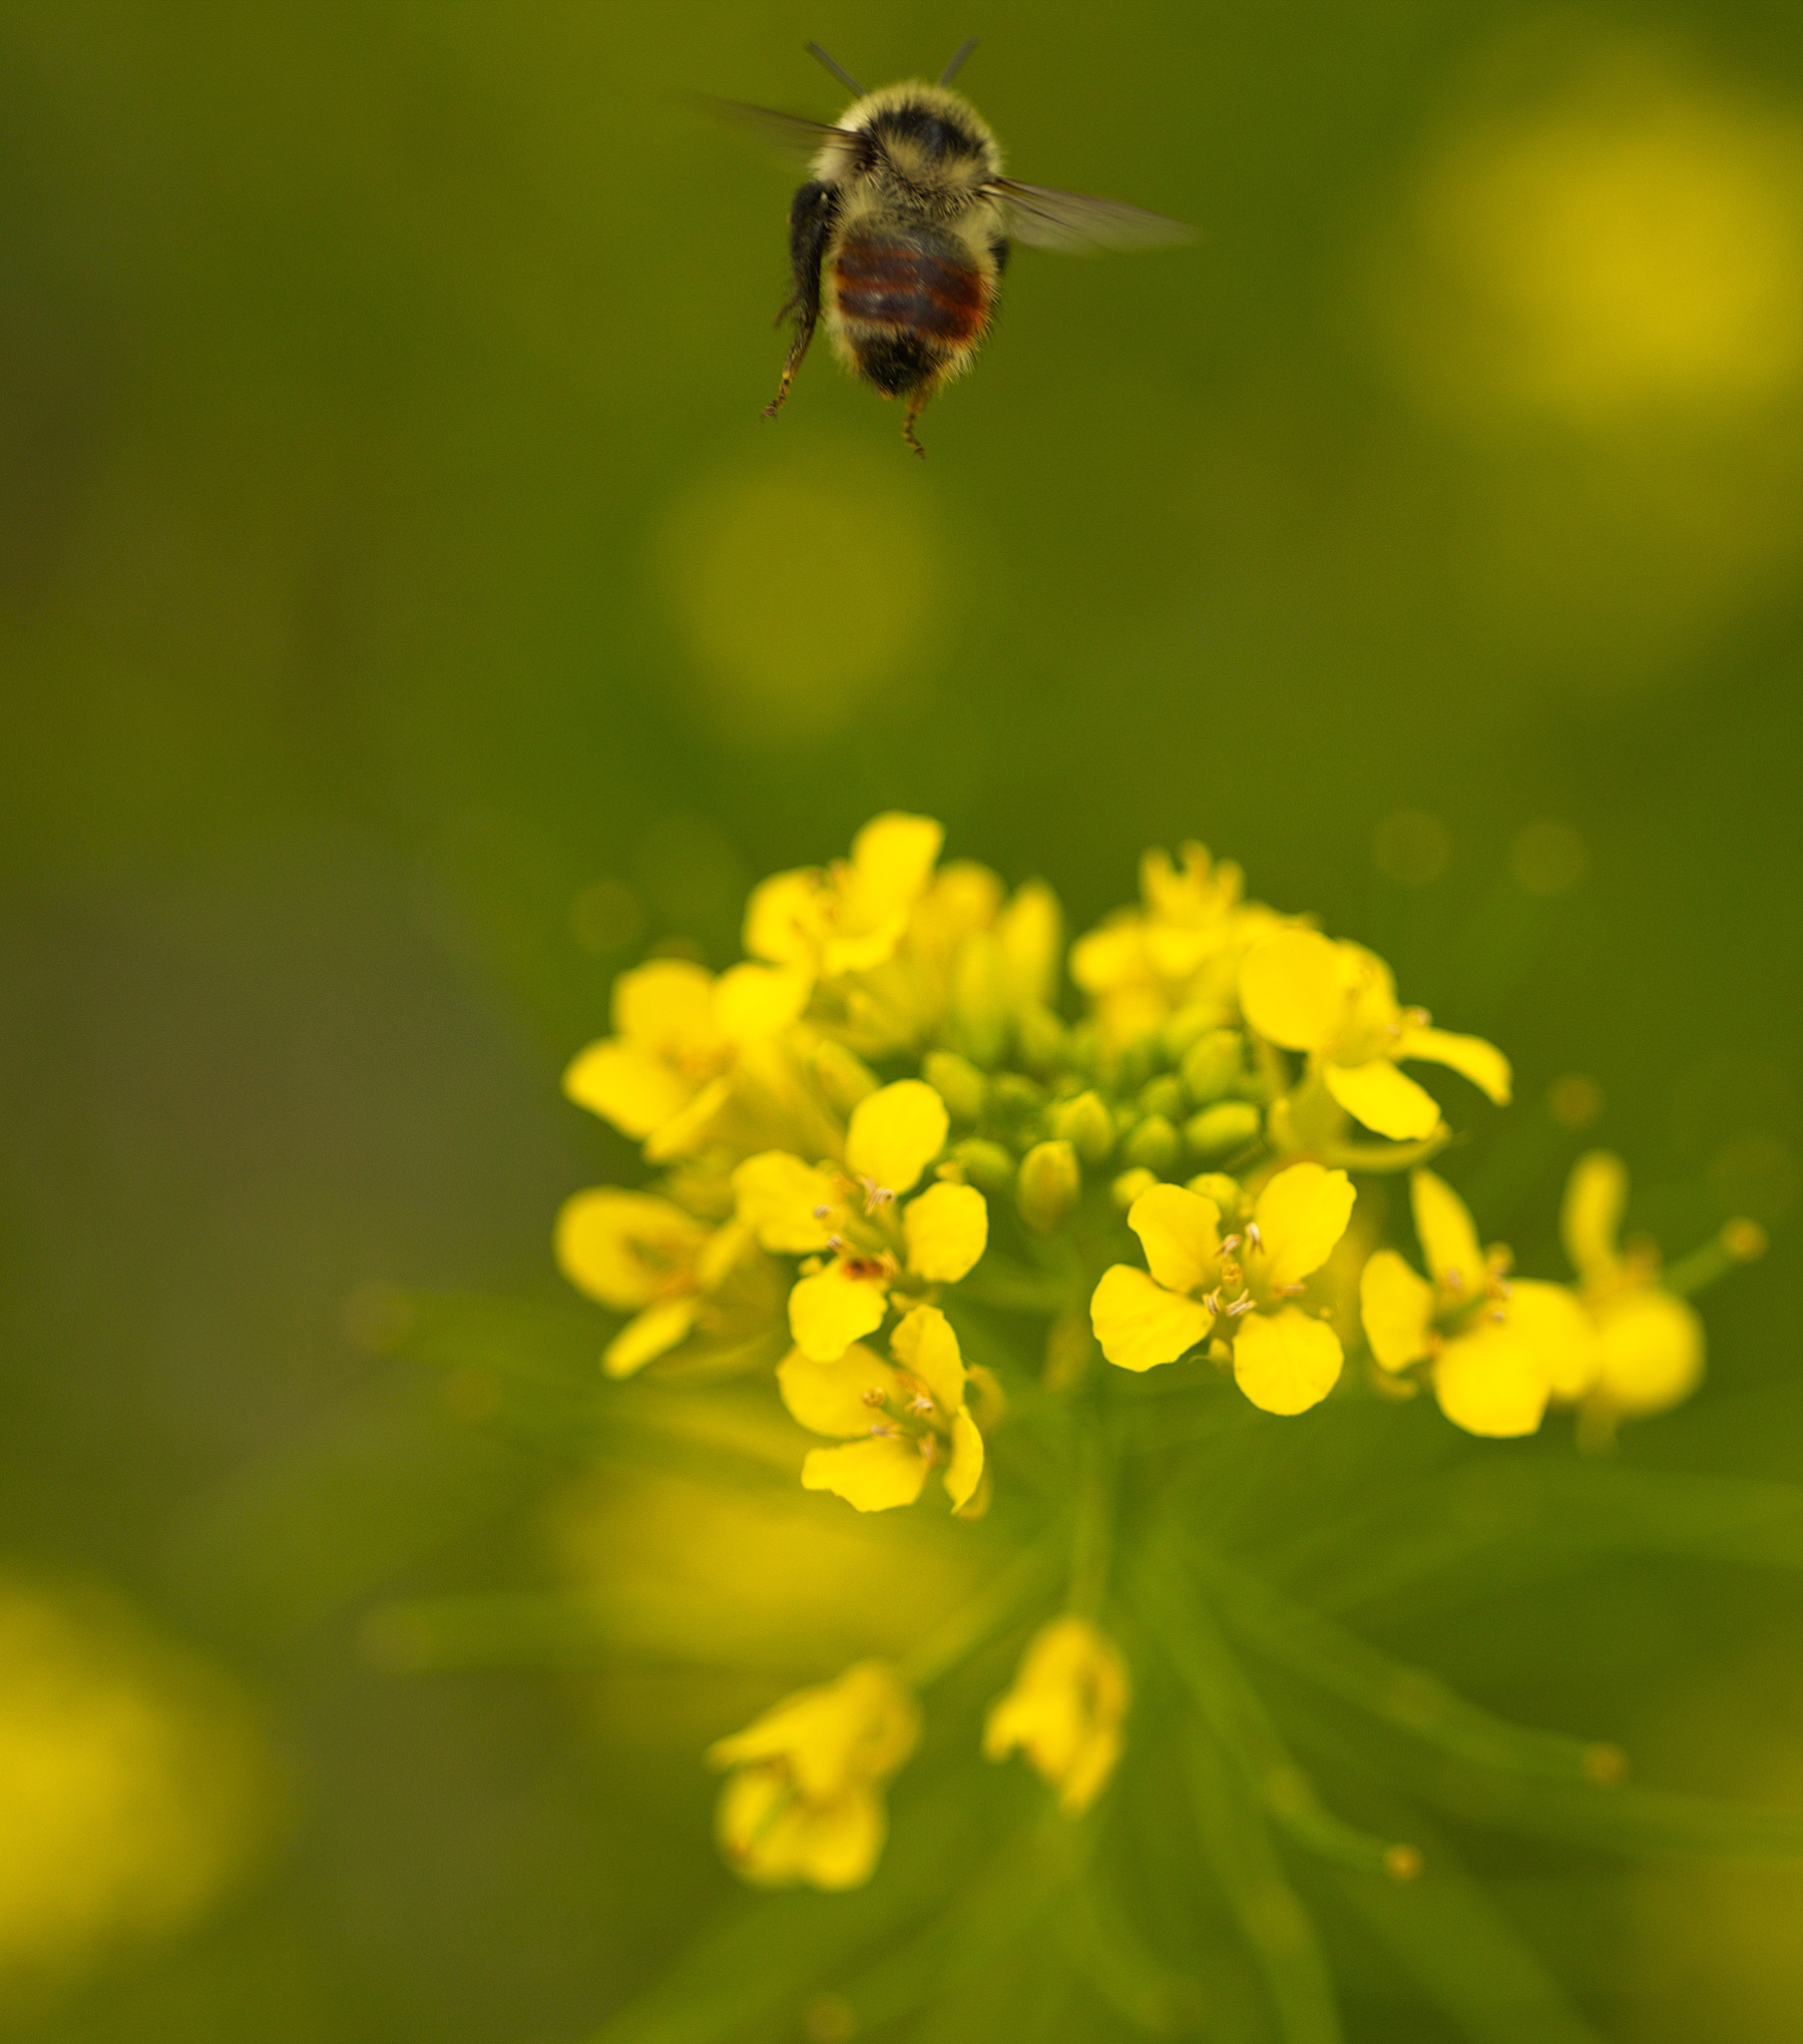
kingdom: Animalia
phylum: Arthropoda
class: Insecta
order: Hymenoptera
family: Apidae
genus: Bombus
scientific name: Bombus rufocinctus
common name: Red-belted bumble bee
